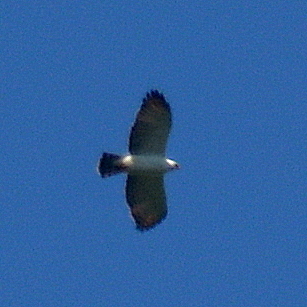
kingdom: Animalia
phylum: Chordata
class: Aves
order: Accipitriformes
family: Accipitridae
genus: Spizaetus
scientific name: Spizaetus melanoleucus
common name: Black-and-white hawk-eagle
